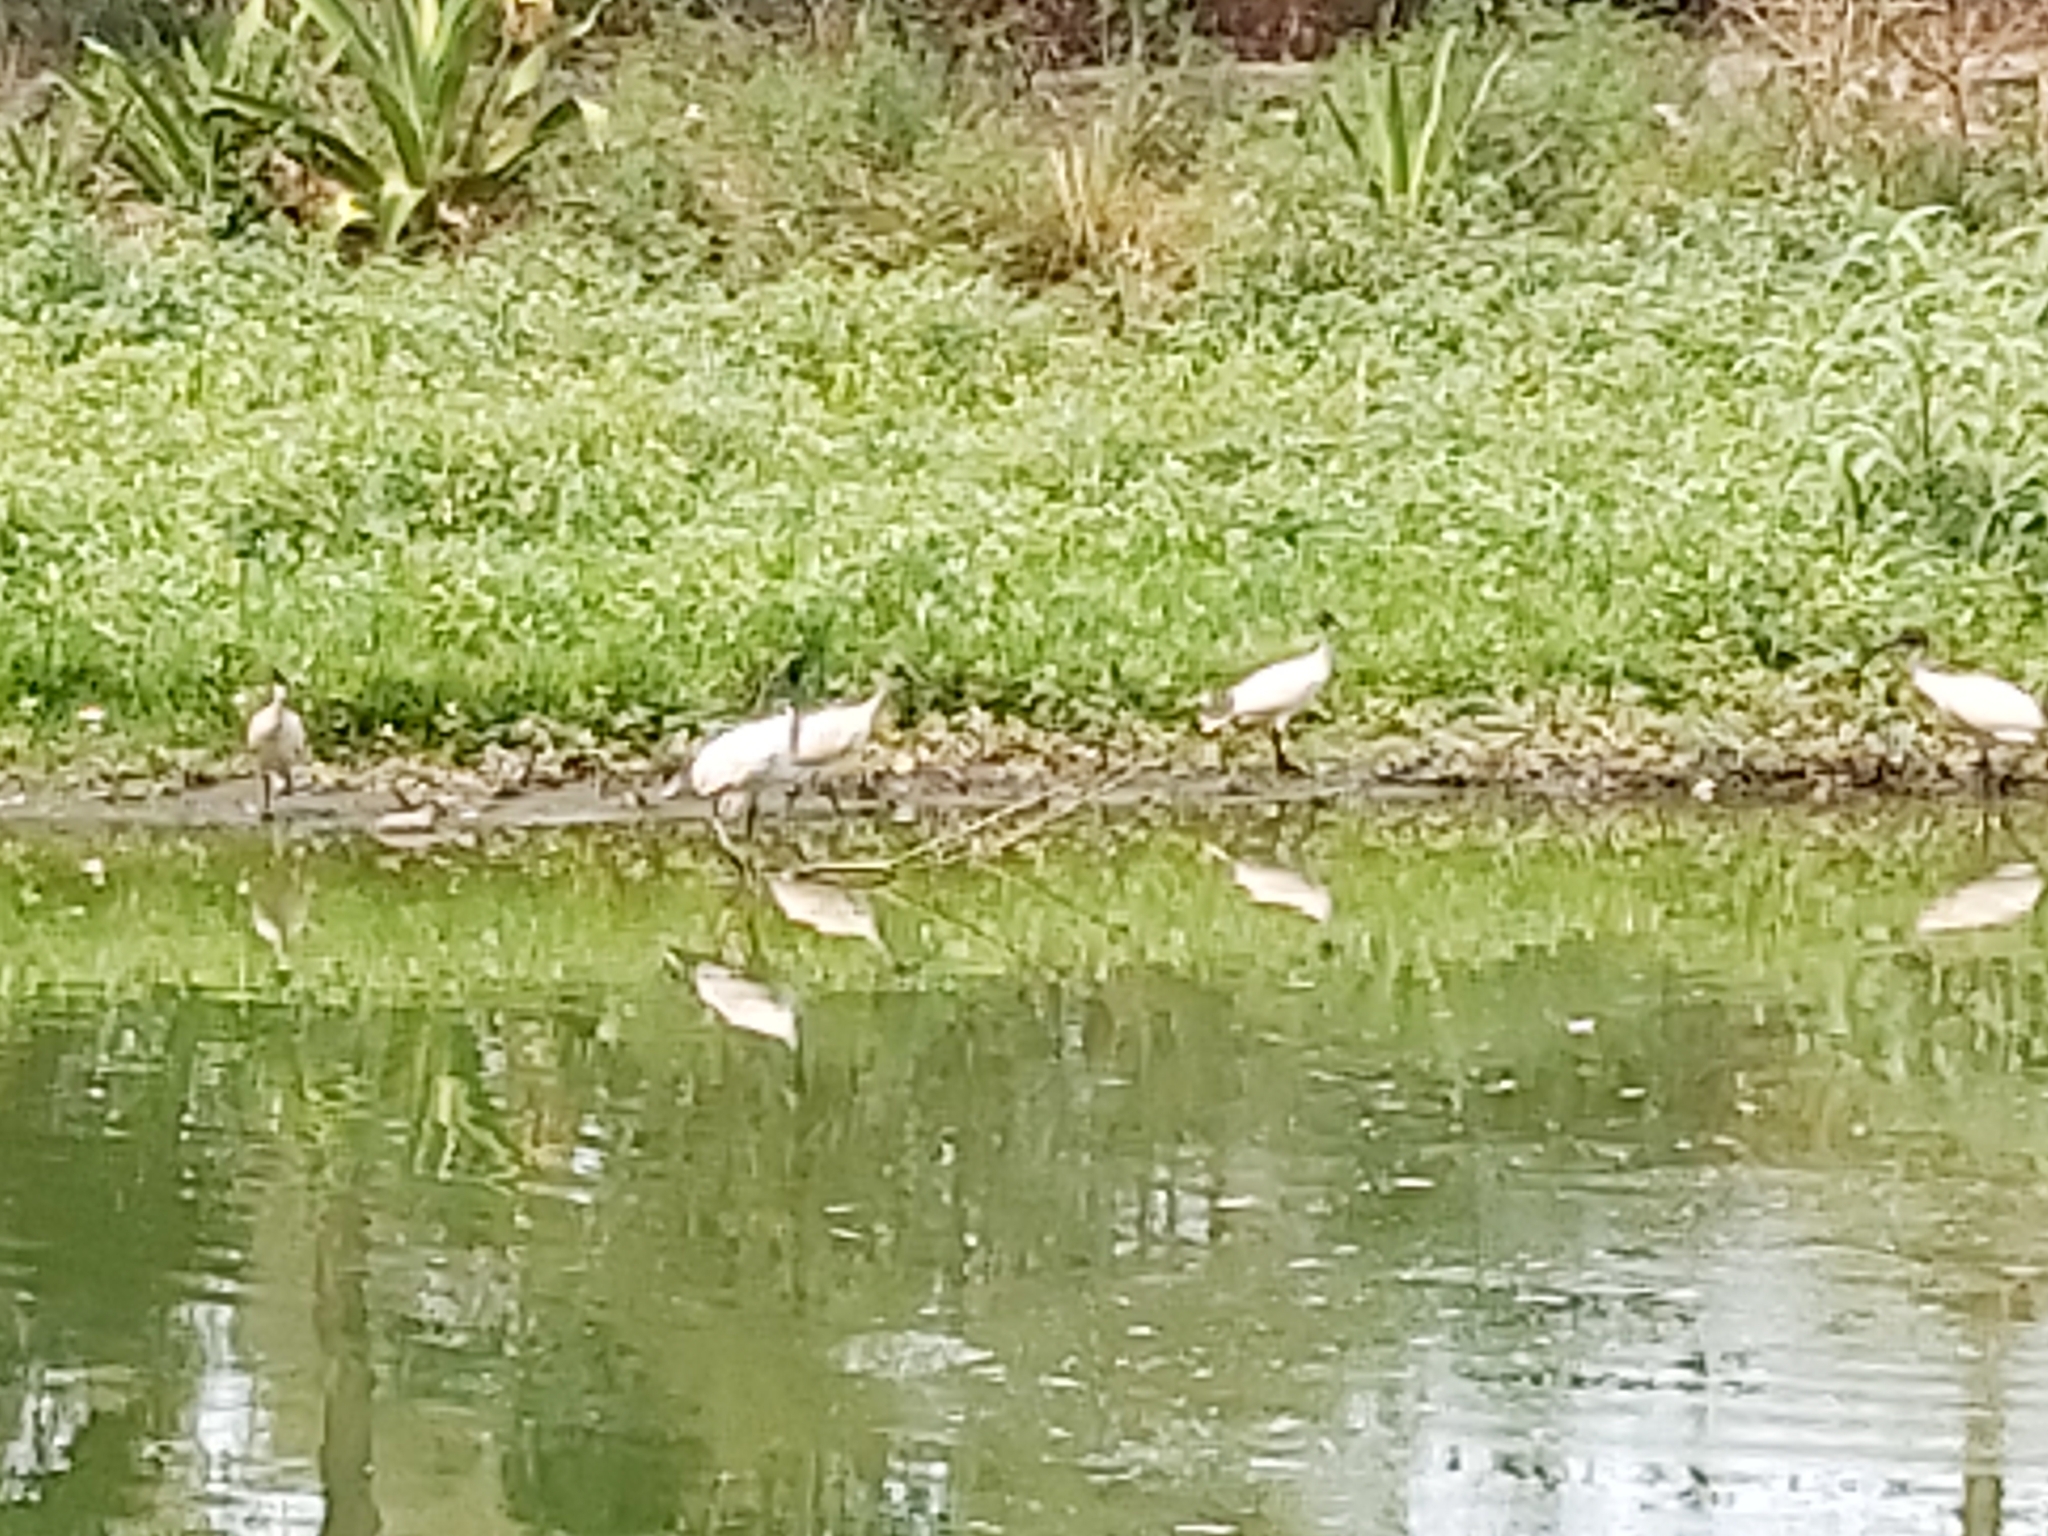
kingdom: Animalia
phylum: Chordata
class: Aves
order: Pelecaniformes
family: Threskiornithidae
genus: Threskiornis
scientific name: Threskiornis molucca
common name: Australian white ibis
